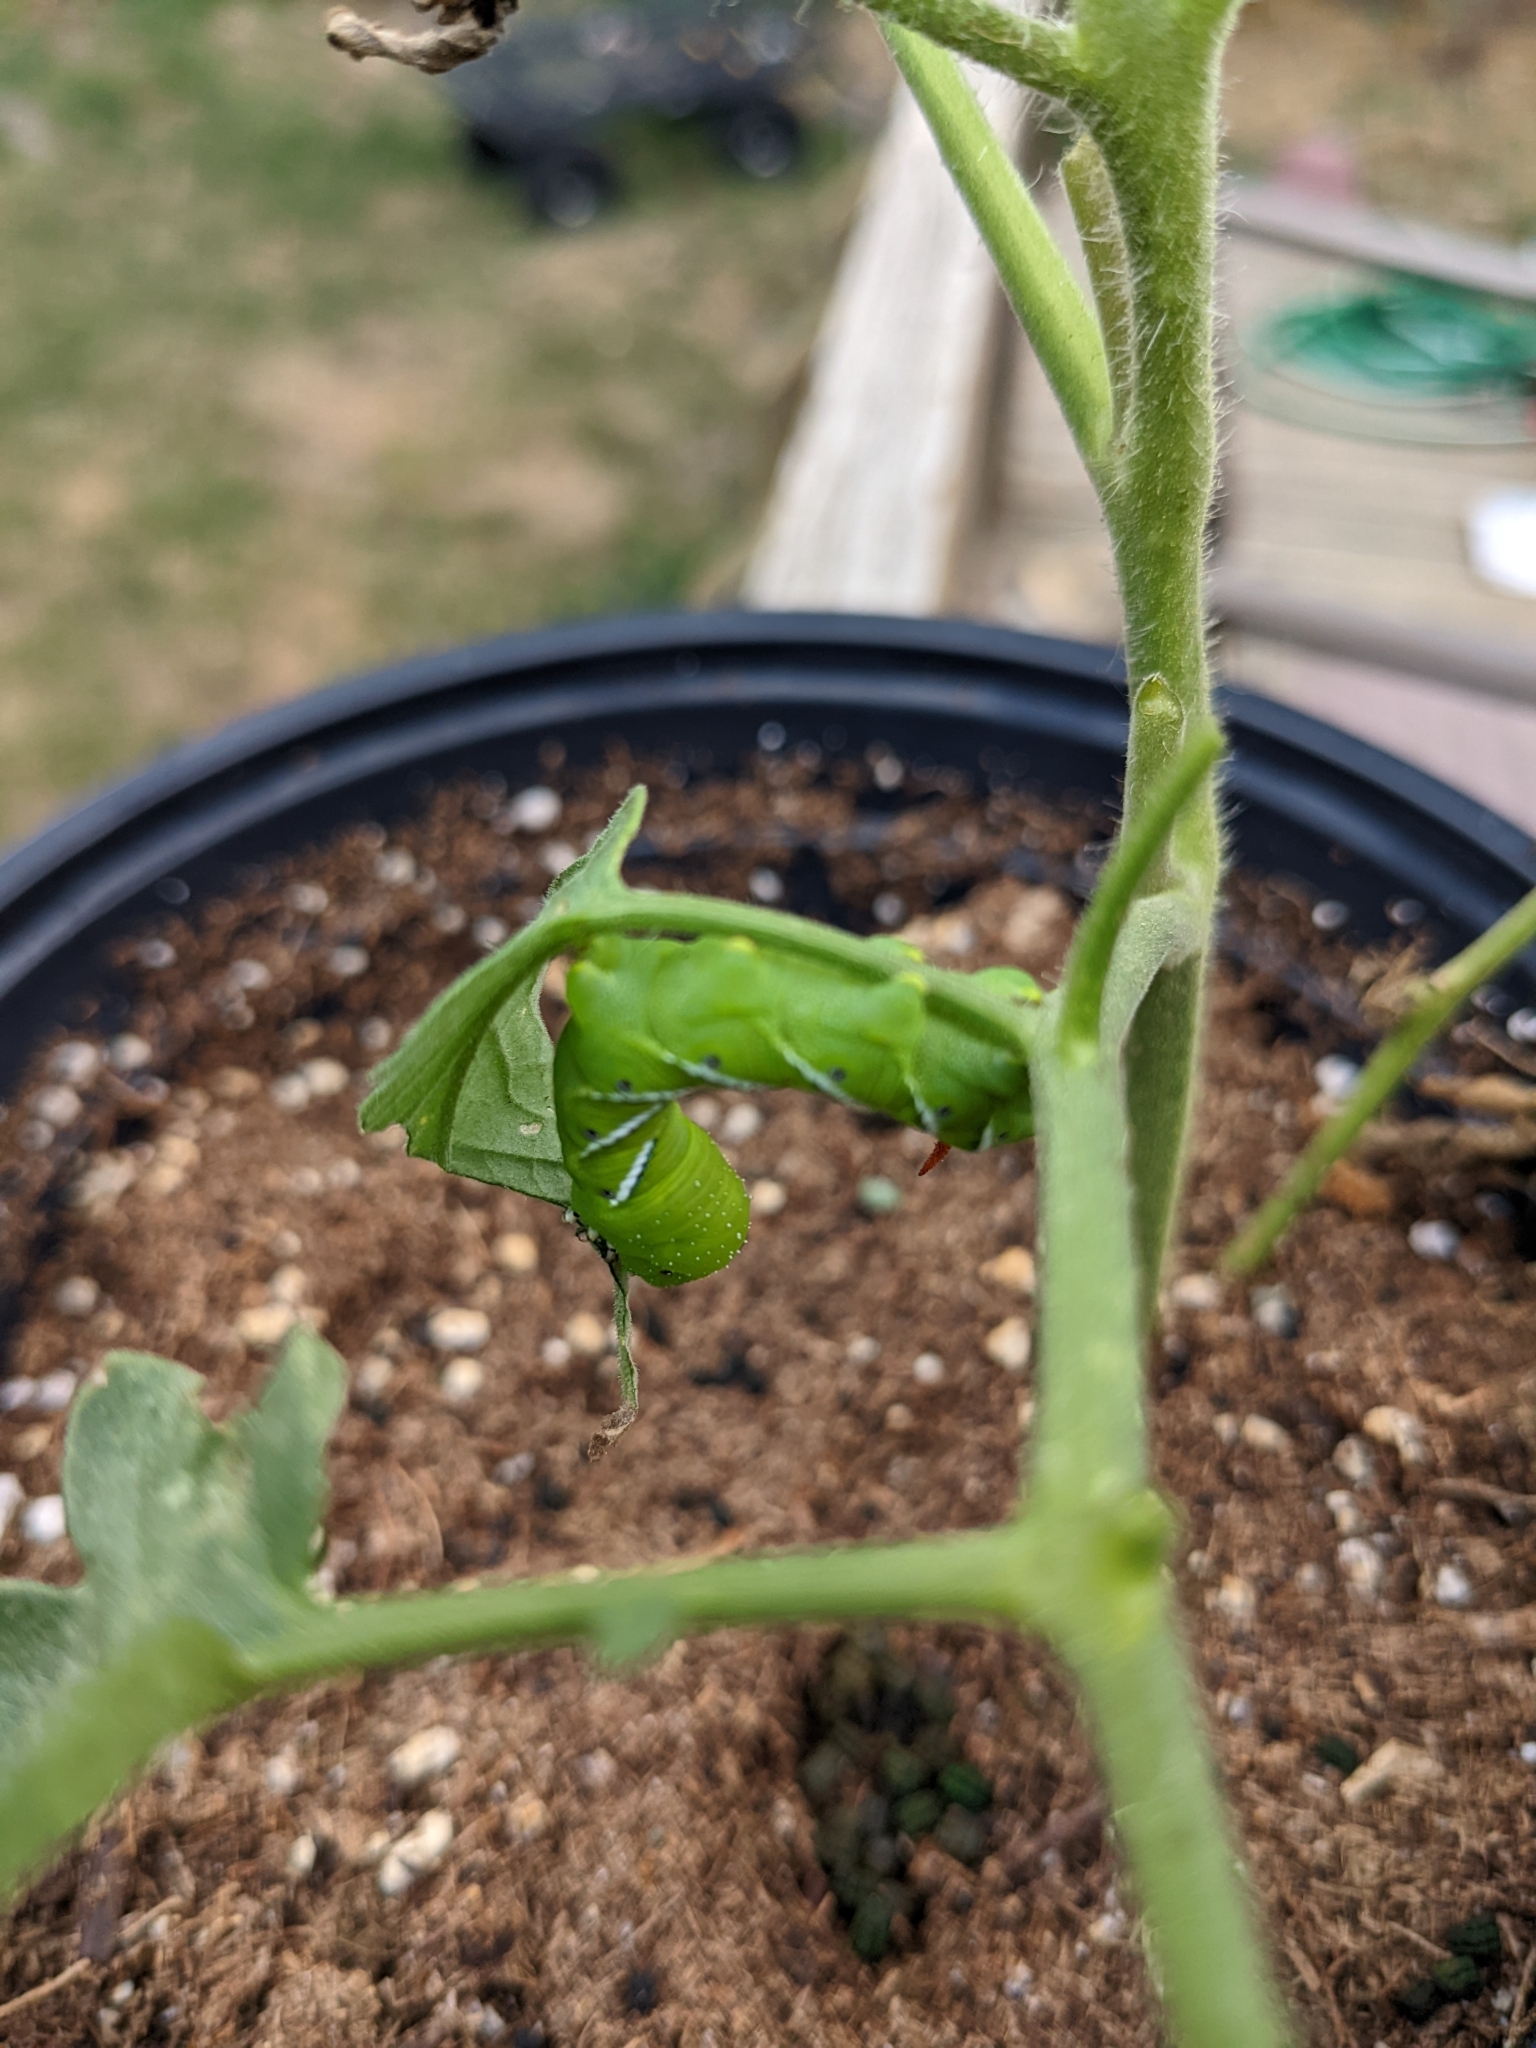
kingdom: Animalia
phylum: Arthropoda
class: Insecta
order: Lepidoptera
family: Sphingidae
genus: Manduca
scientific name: Manduca sexta
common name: Carolina sphinx
